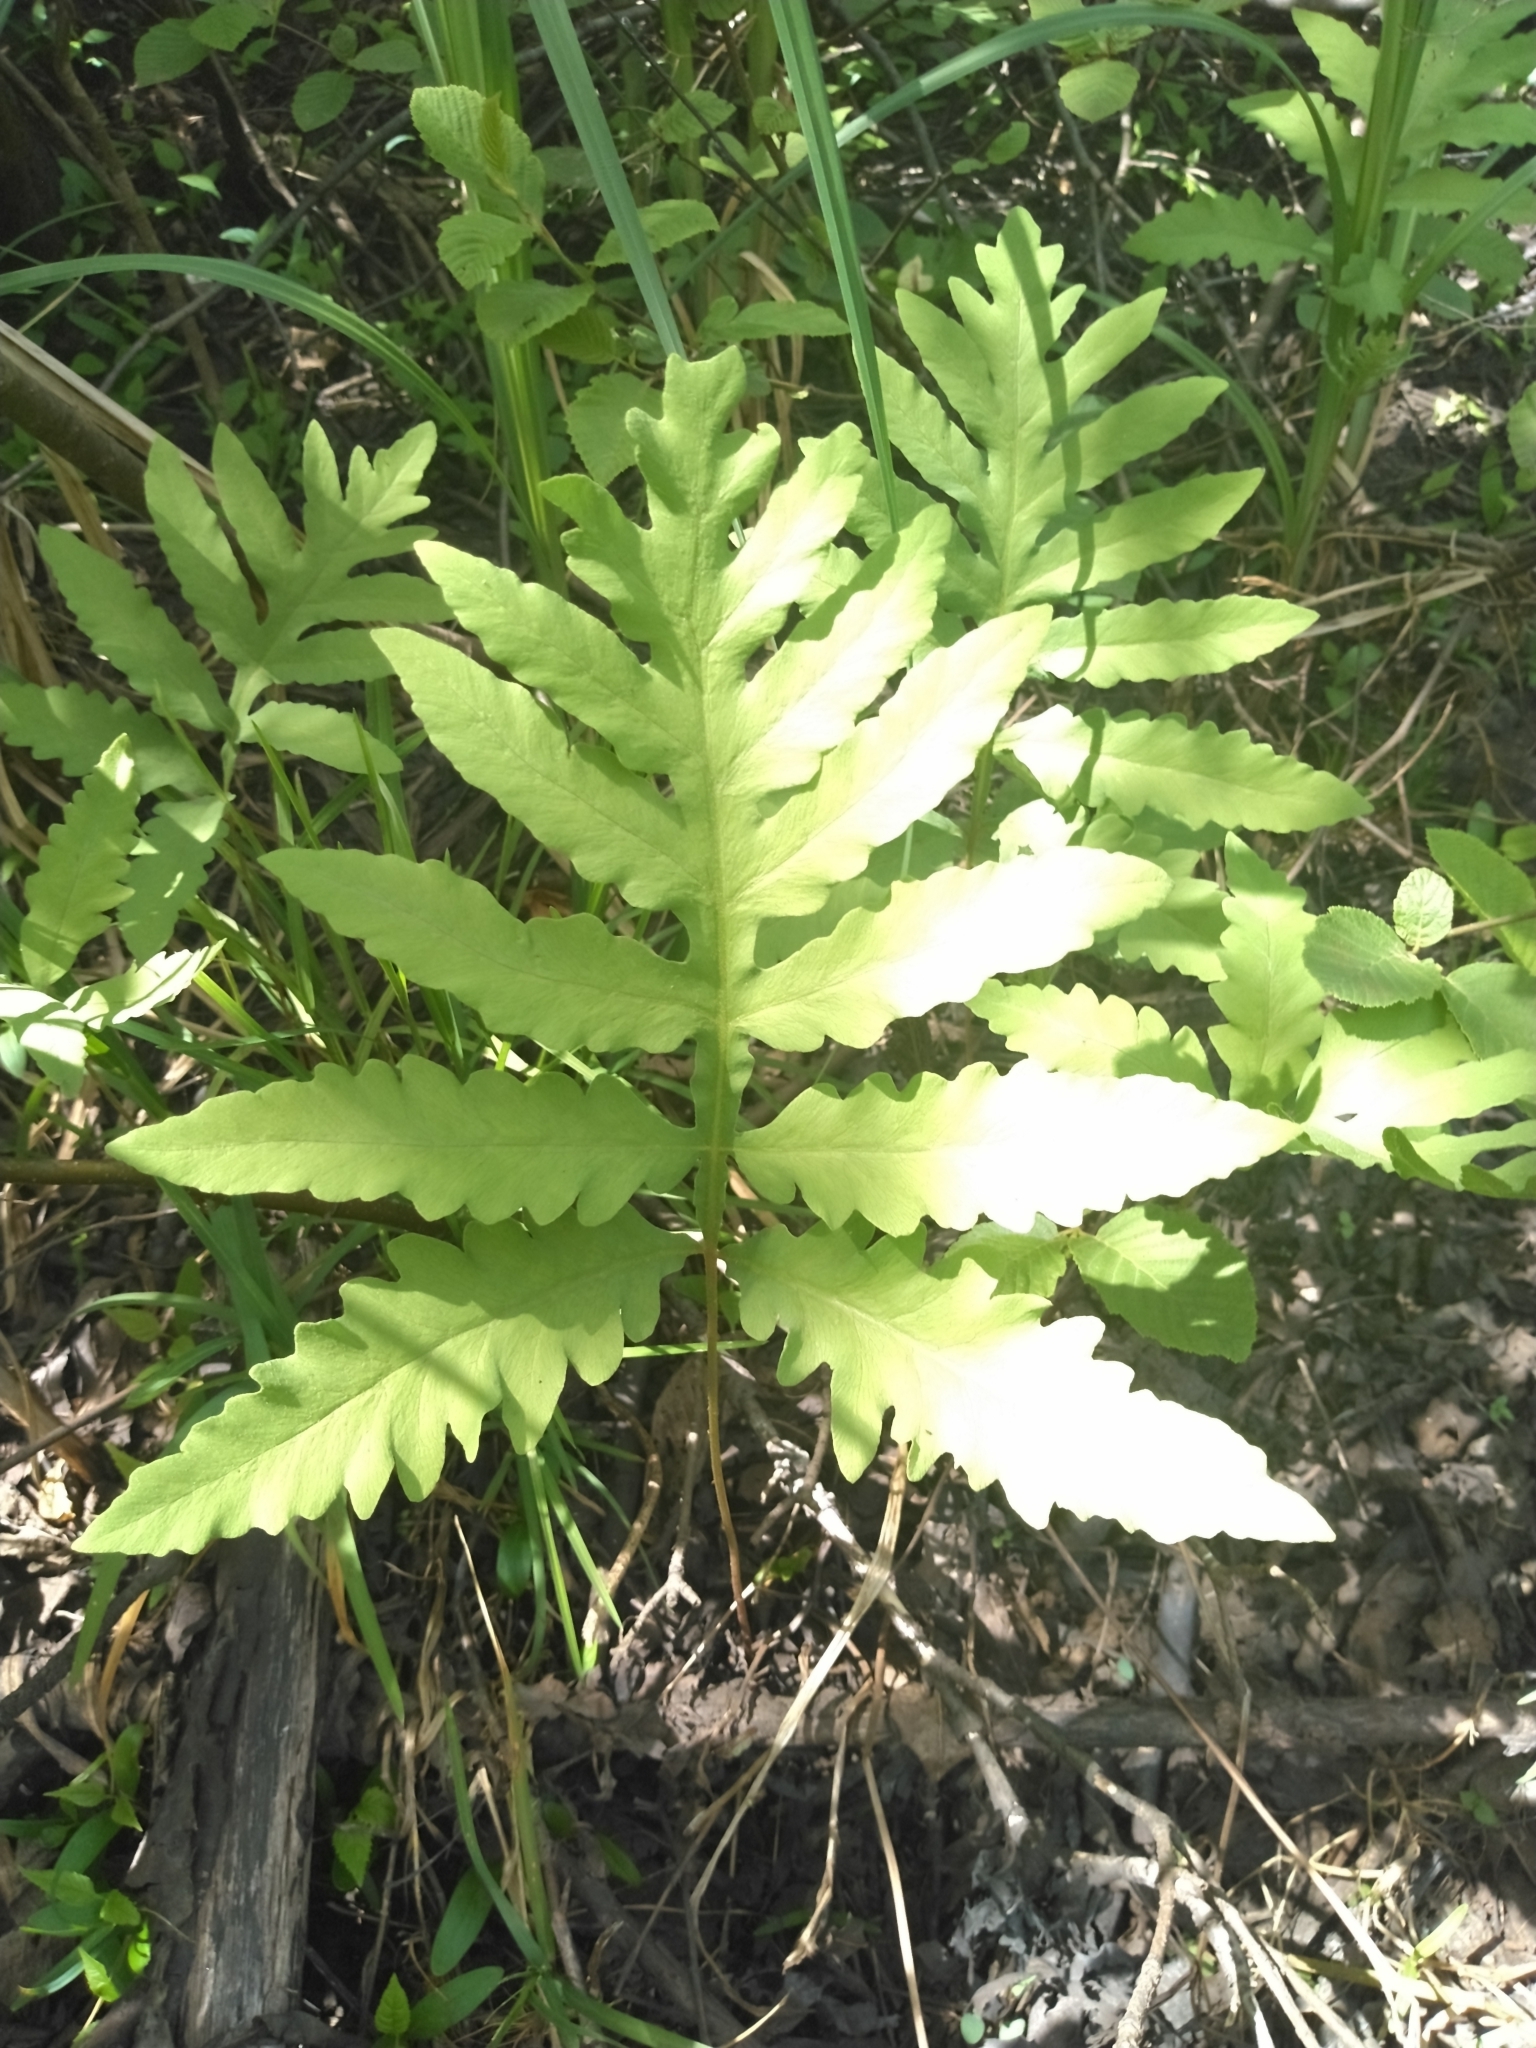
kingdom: Plantae
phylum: Tracheophyta
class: Polypodiopsida
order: Polypodiales
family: Onocleaceae
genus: Onoclea
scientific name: Onoclea sensibilis
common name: Sensitive fern
